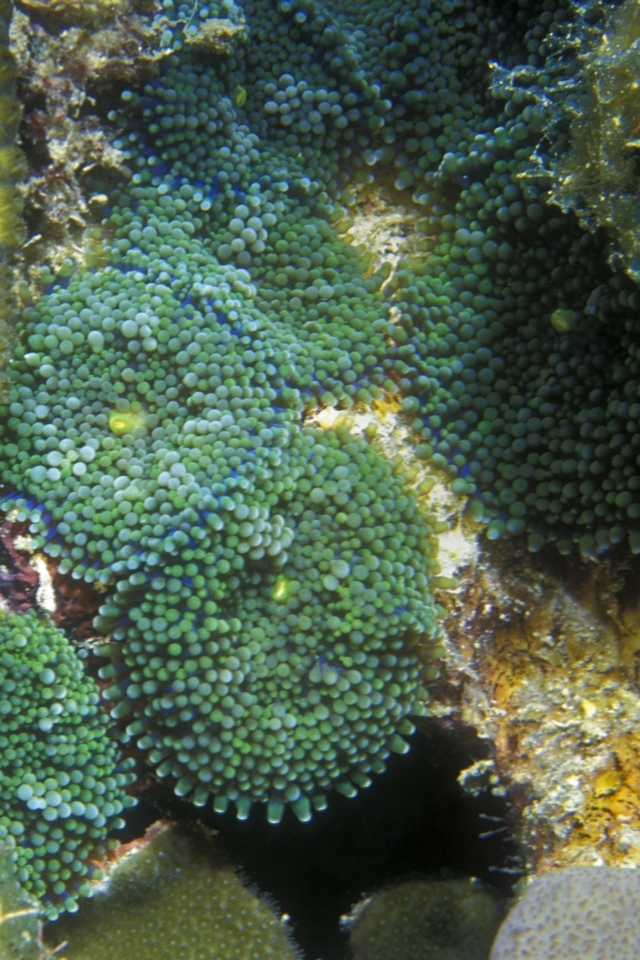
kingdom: Animalia
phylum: Cnidaria
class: Anthozoa
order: Corallimorpharia
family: Ricordeidae
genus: Ricordea
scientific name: Ricordea florida
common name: False coral
